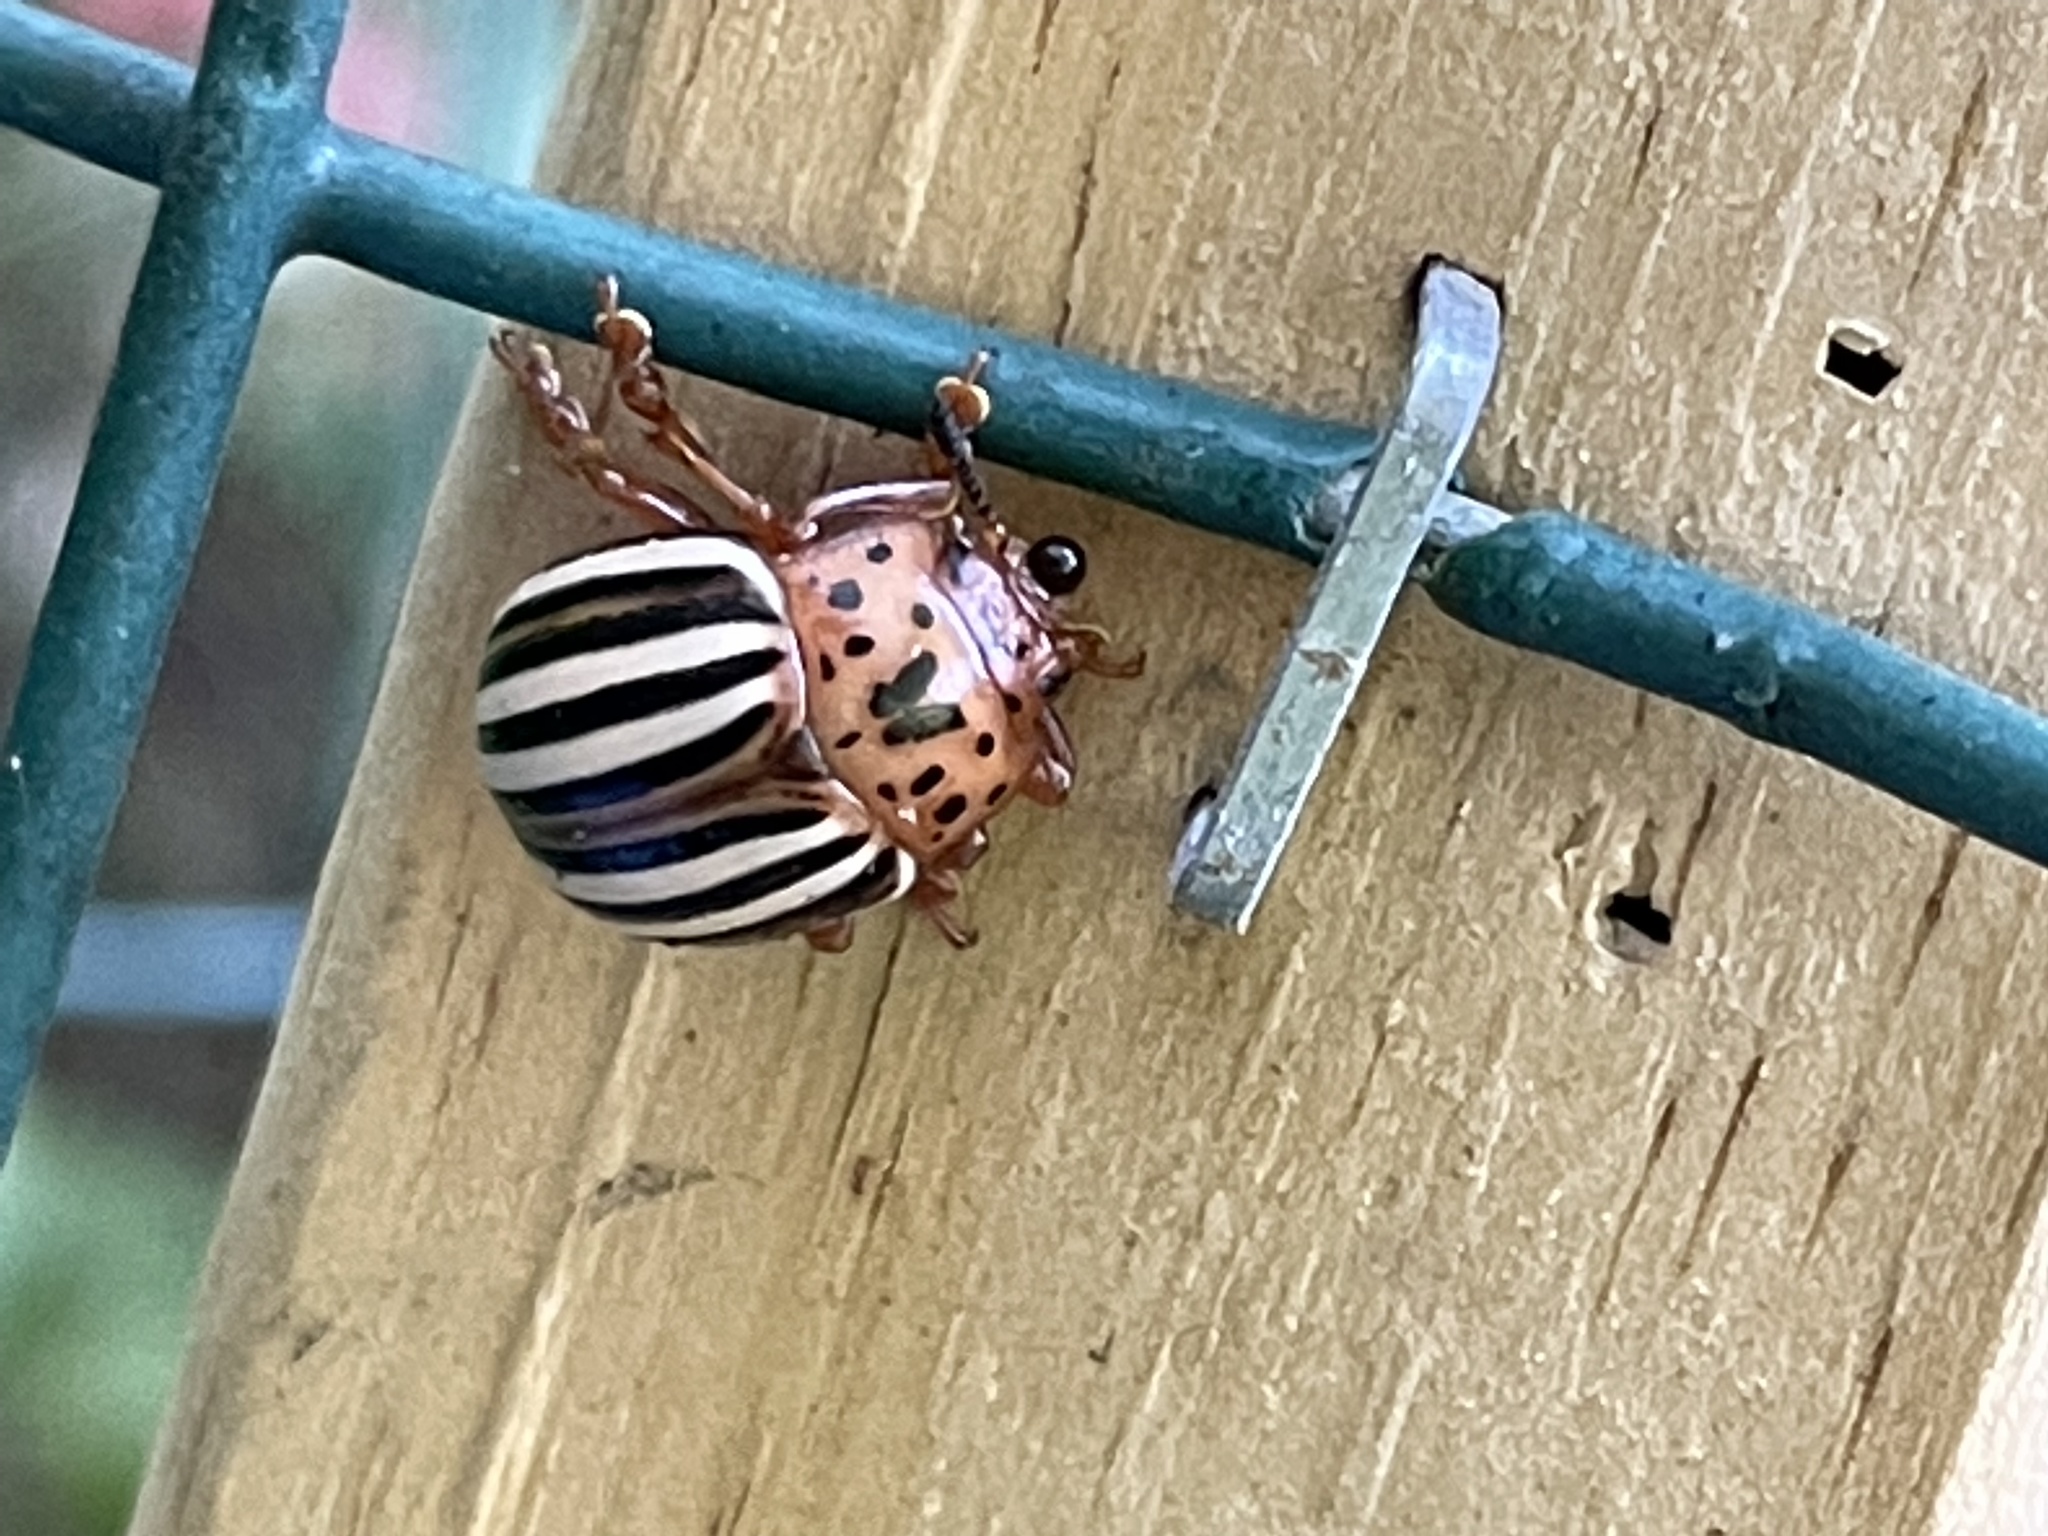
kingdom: Animalia
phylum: Arthropoda
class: Insecta
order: Coleoptera
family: Chrysomelidae
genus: Leptinotarsa
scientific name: Leptinotarsa juncta
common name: False potato beetle
